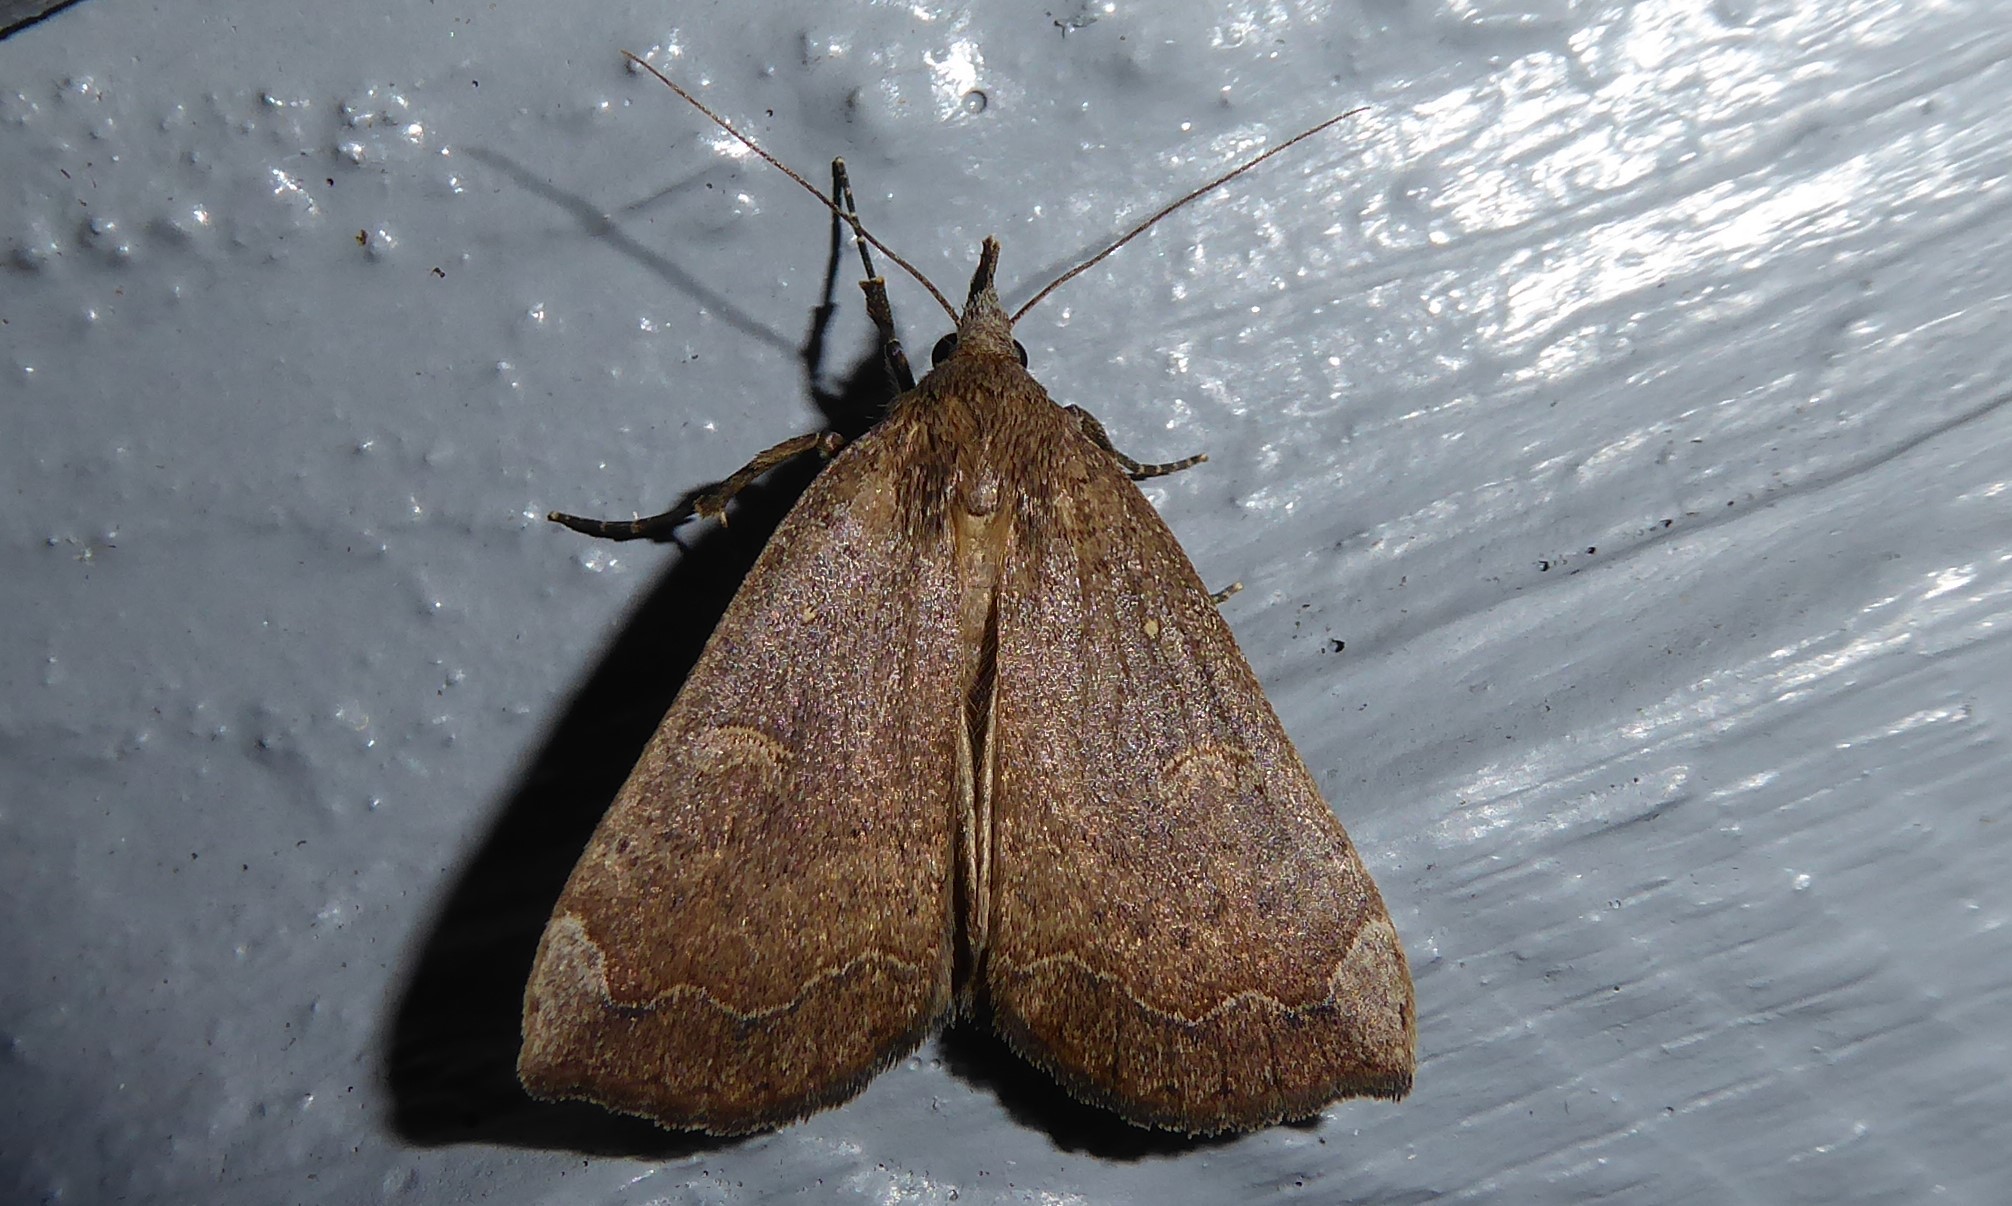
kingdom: Animalia
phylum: Arthropoda
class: Insecta
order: Lepidoptera
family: Erebidae
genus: Rhapsa
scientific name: Rhapsa scotosialis
